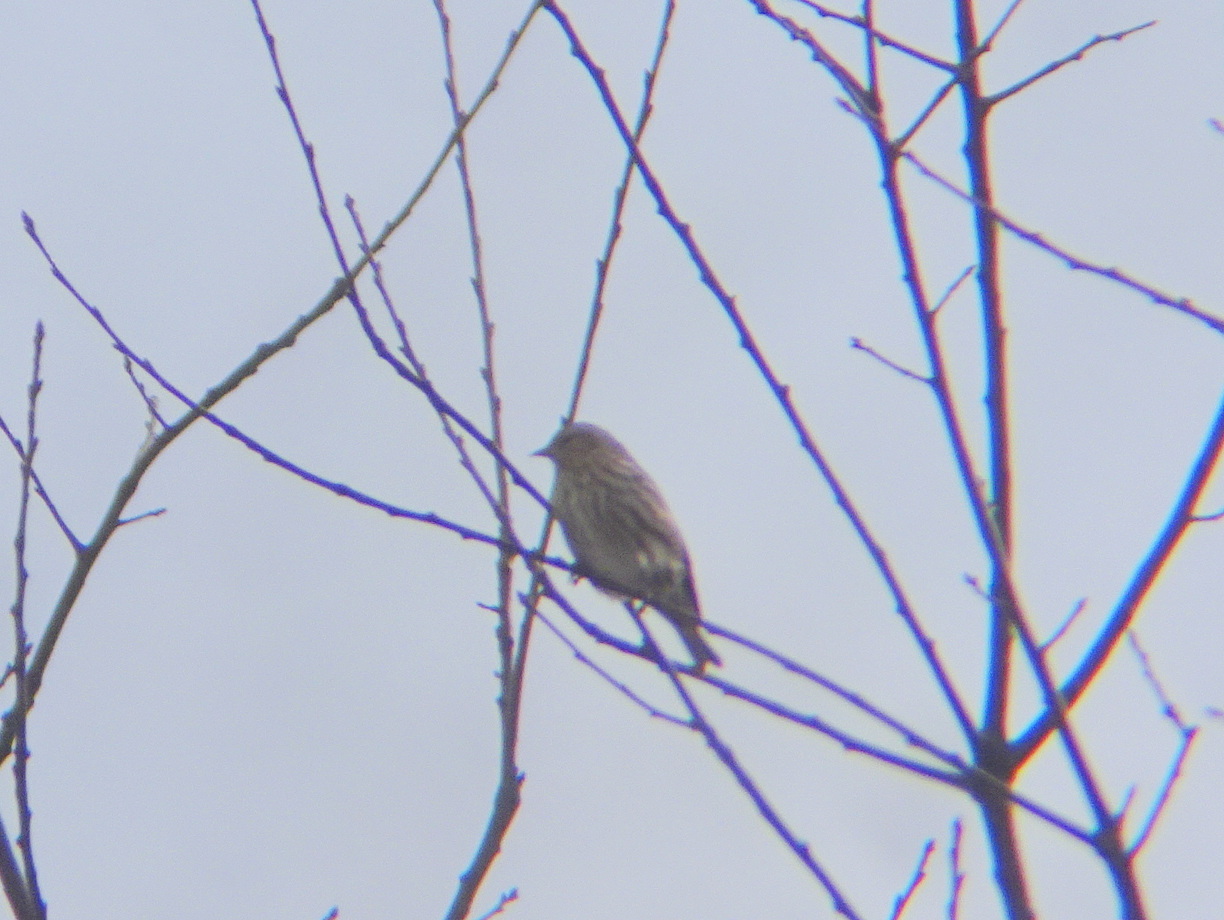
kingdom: Animalia
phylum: Chordata
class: Aves
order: Passeriformes
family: Fringillidae
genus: Spinus
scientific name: Spinus pinus
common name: Pine siskin
